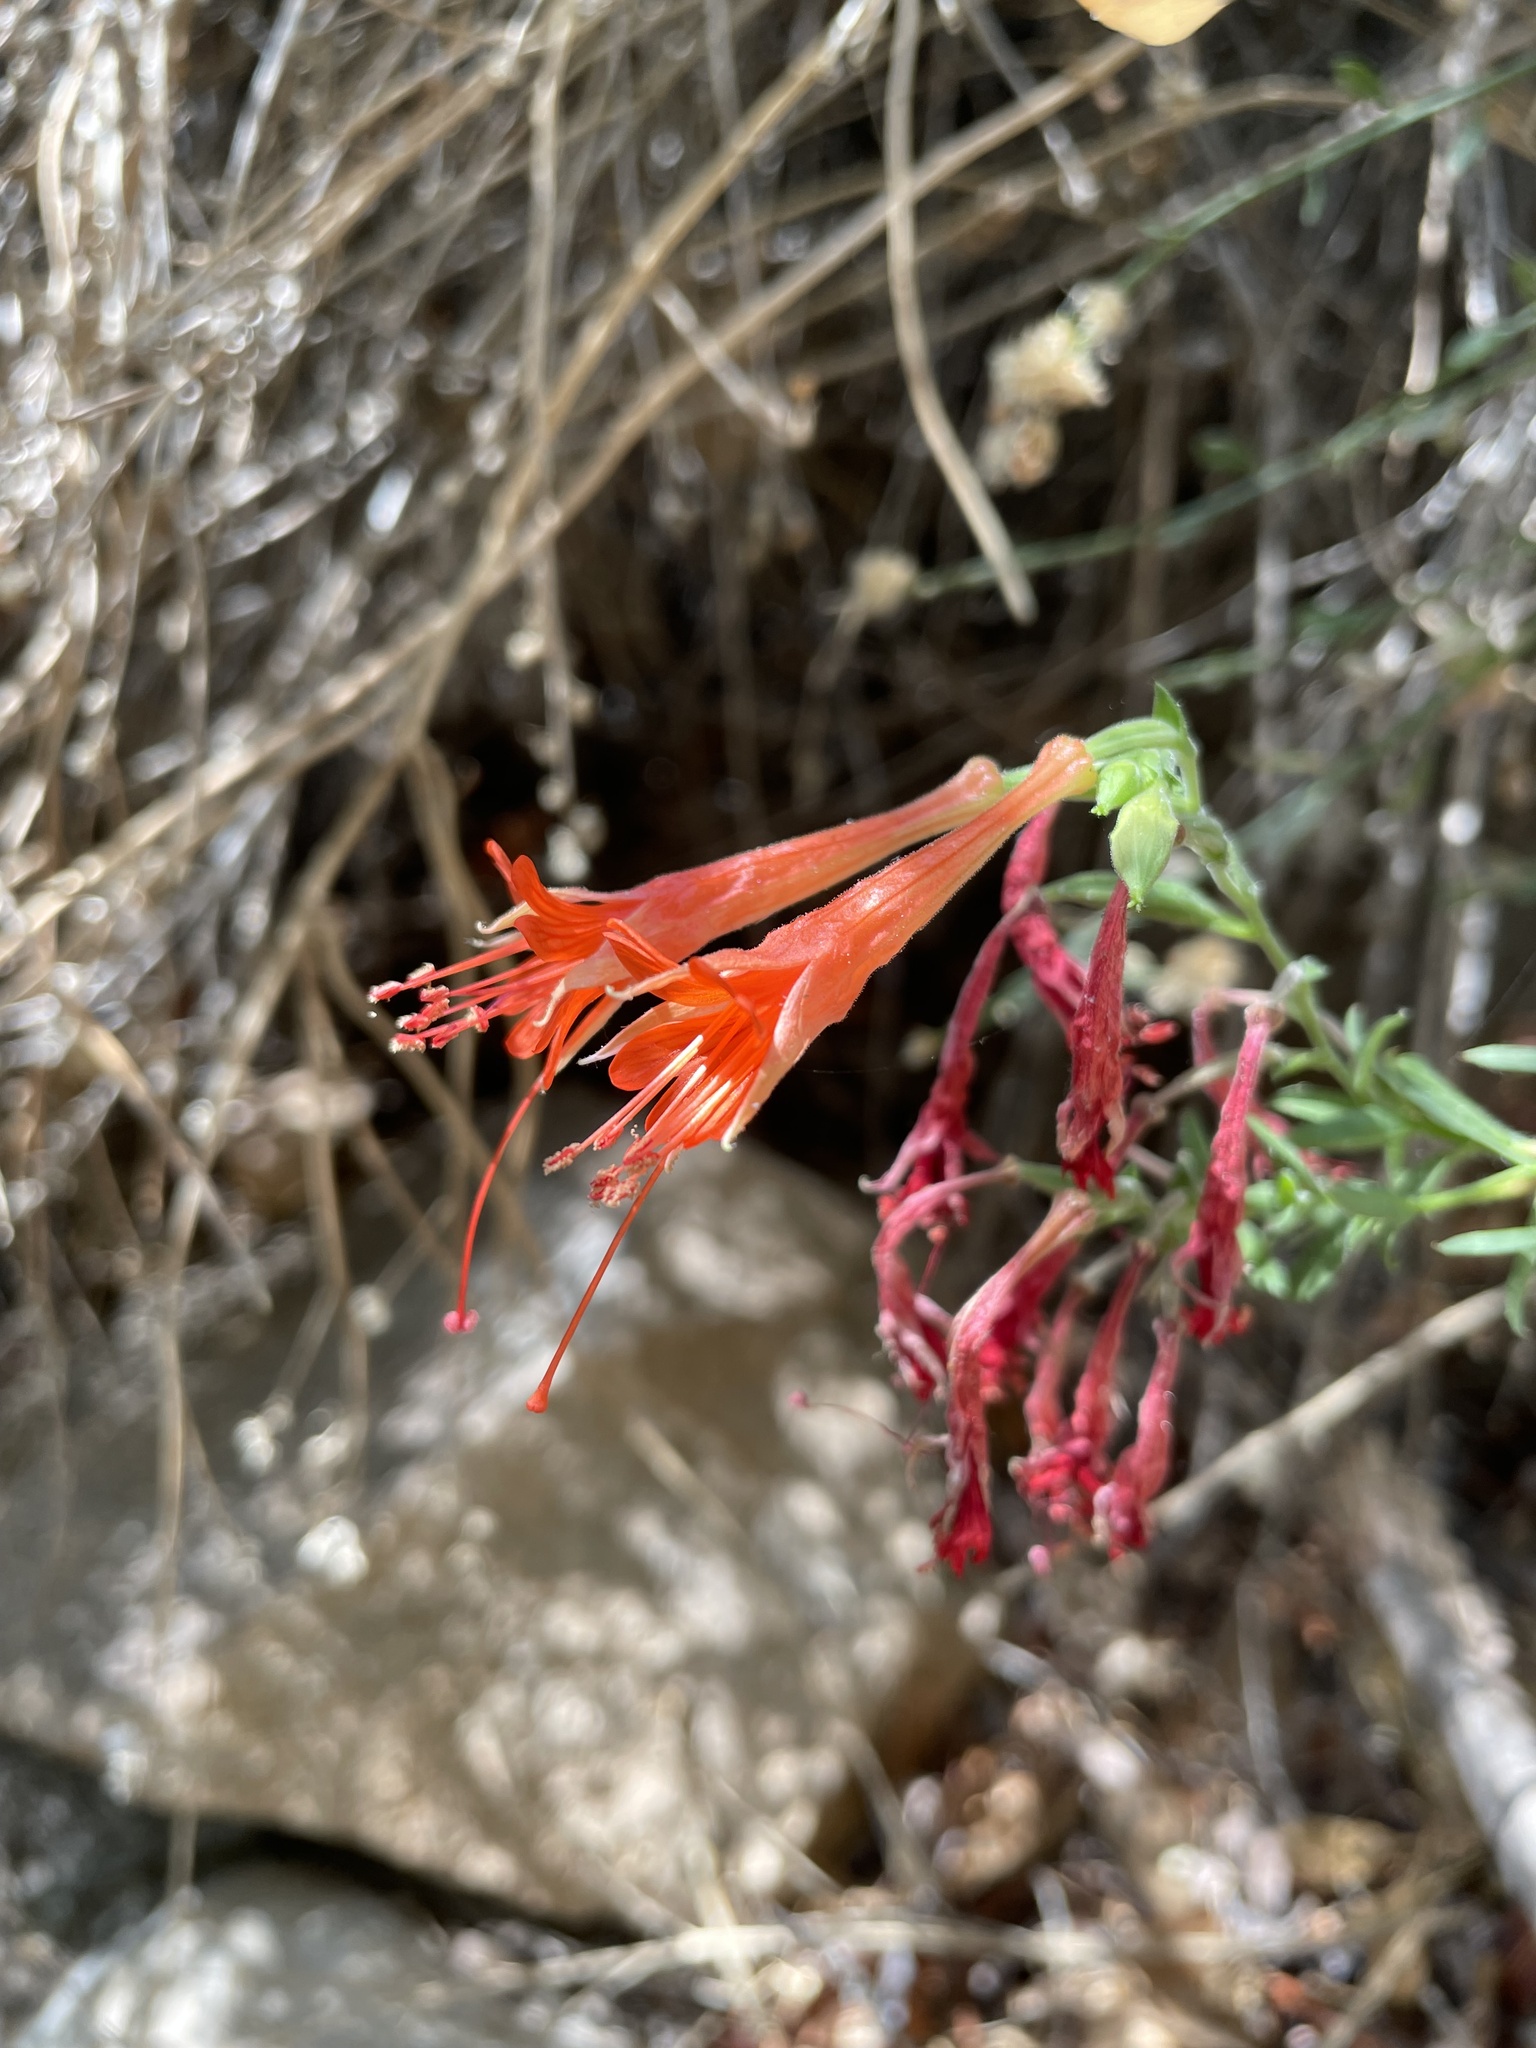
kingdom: Plantae
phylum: Tracheophyta
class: Magnoliopsida
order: Myrtales
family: Onagraceae
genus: Epilobium
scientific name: Epilobium canum
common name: California-fuchsia
